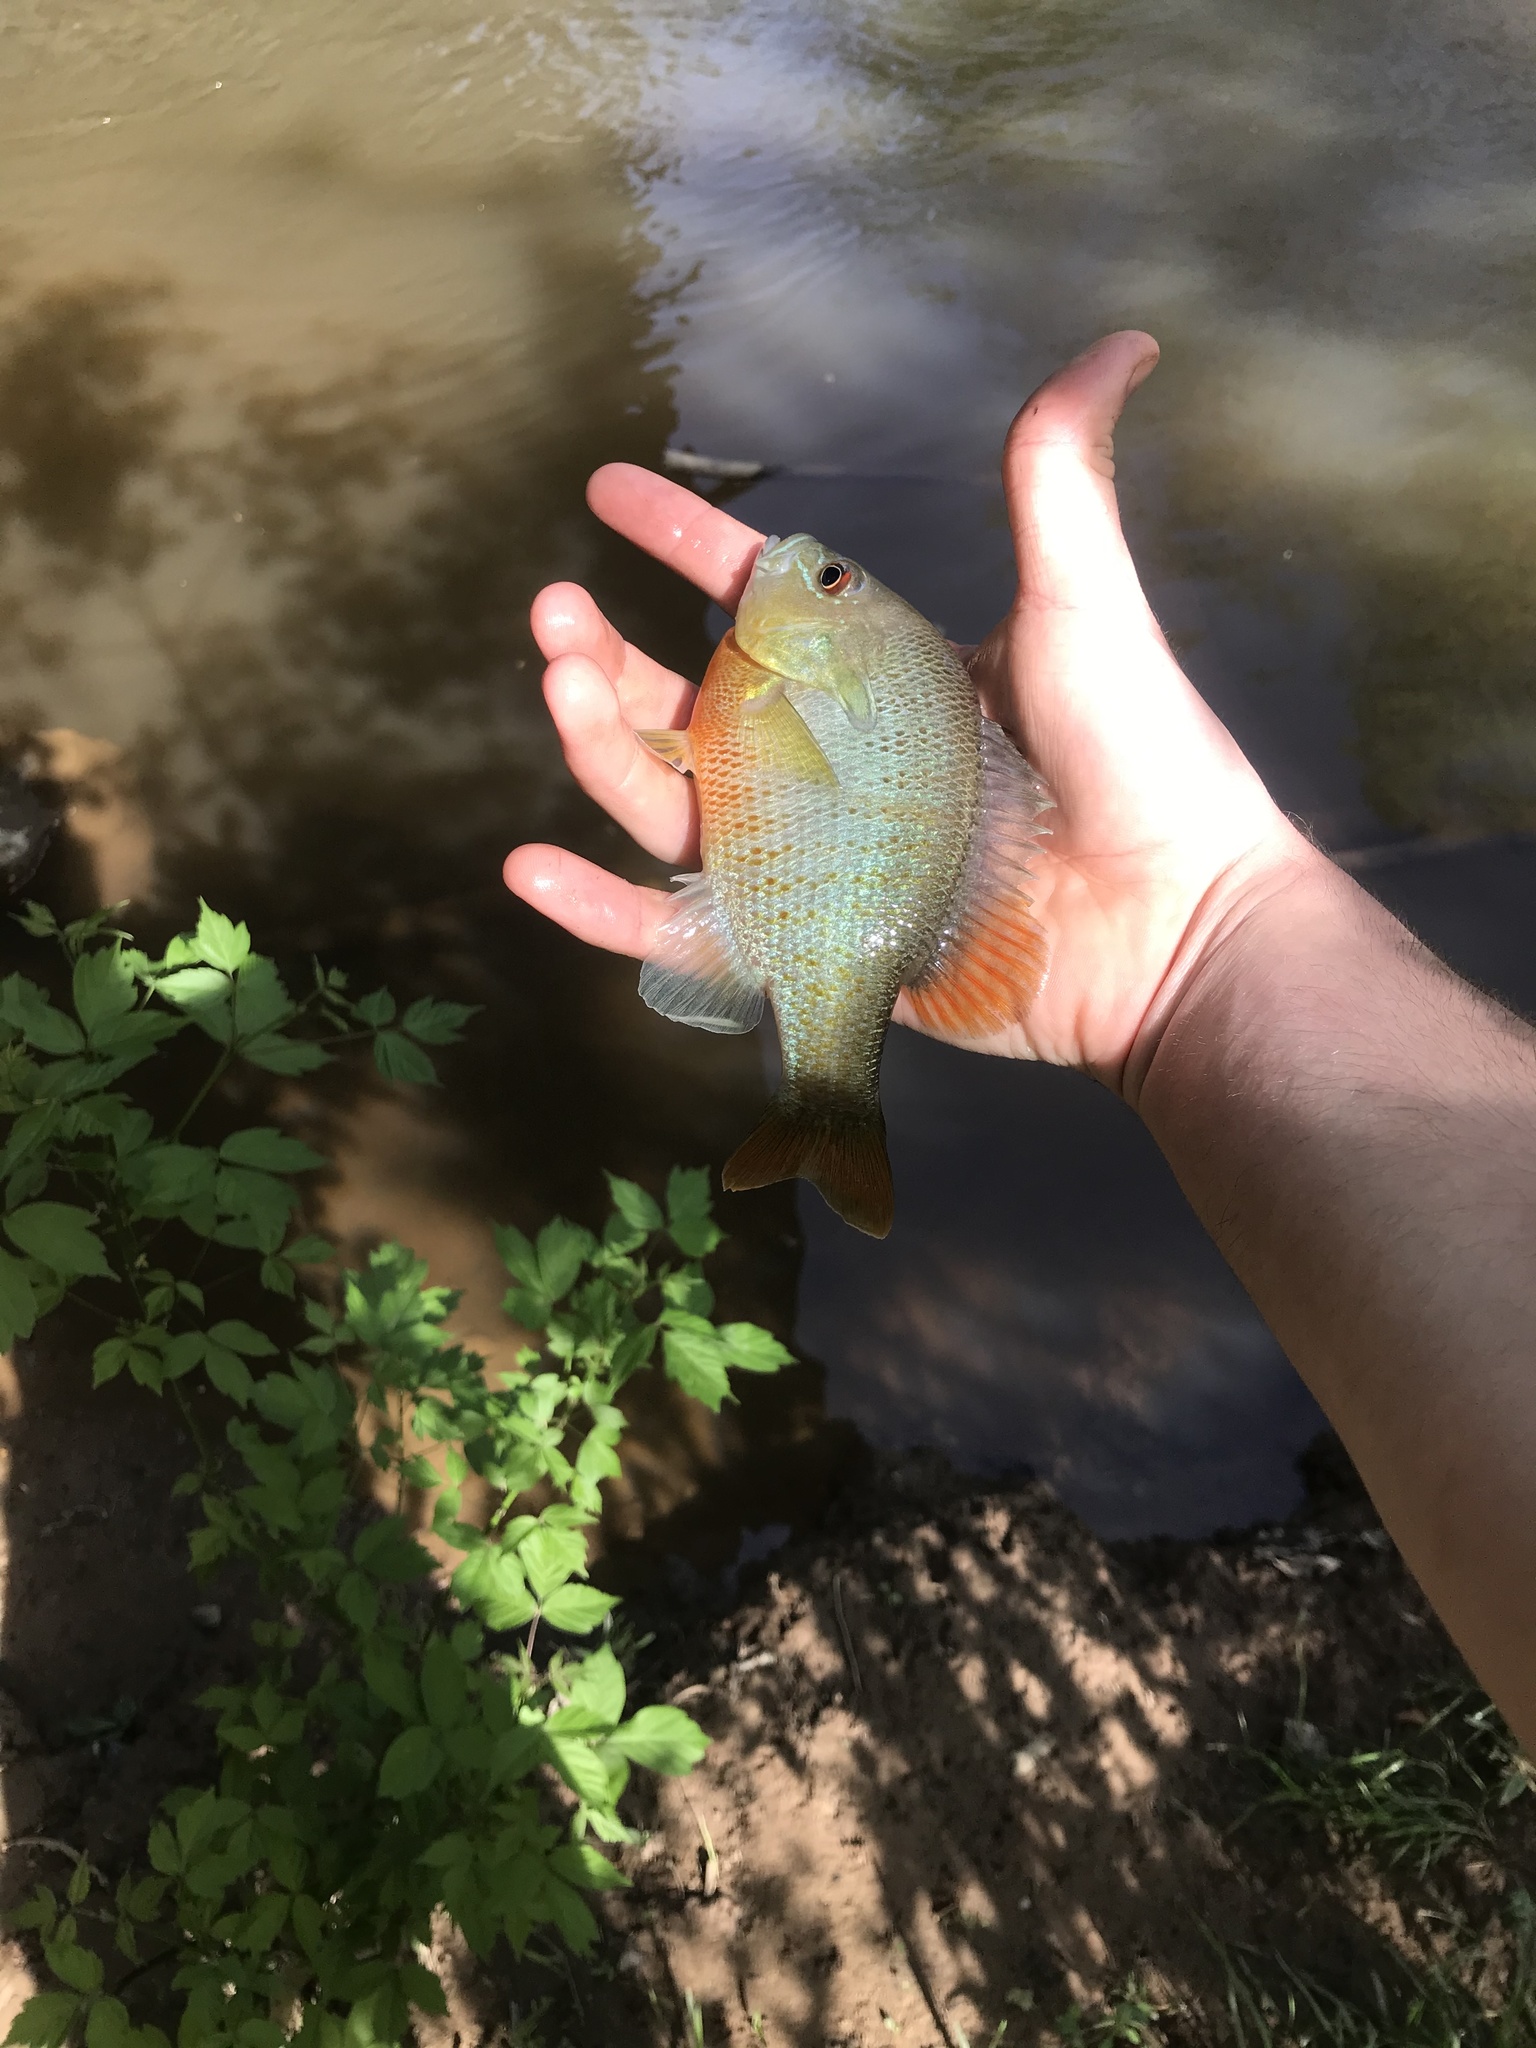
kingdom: Animalia
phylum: Chordata
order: Perciformes
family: Centrarchidae
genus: Lepomis
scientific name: Lepomis auritus
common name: Redbreast sunfish
